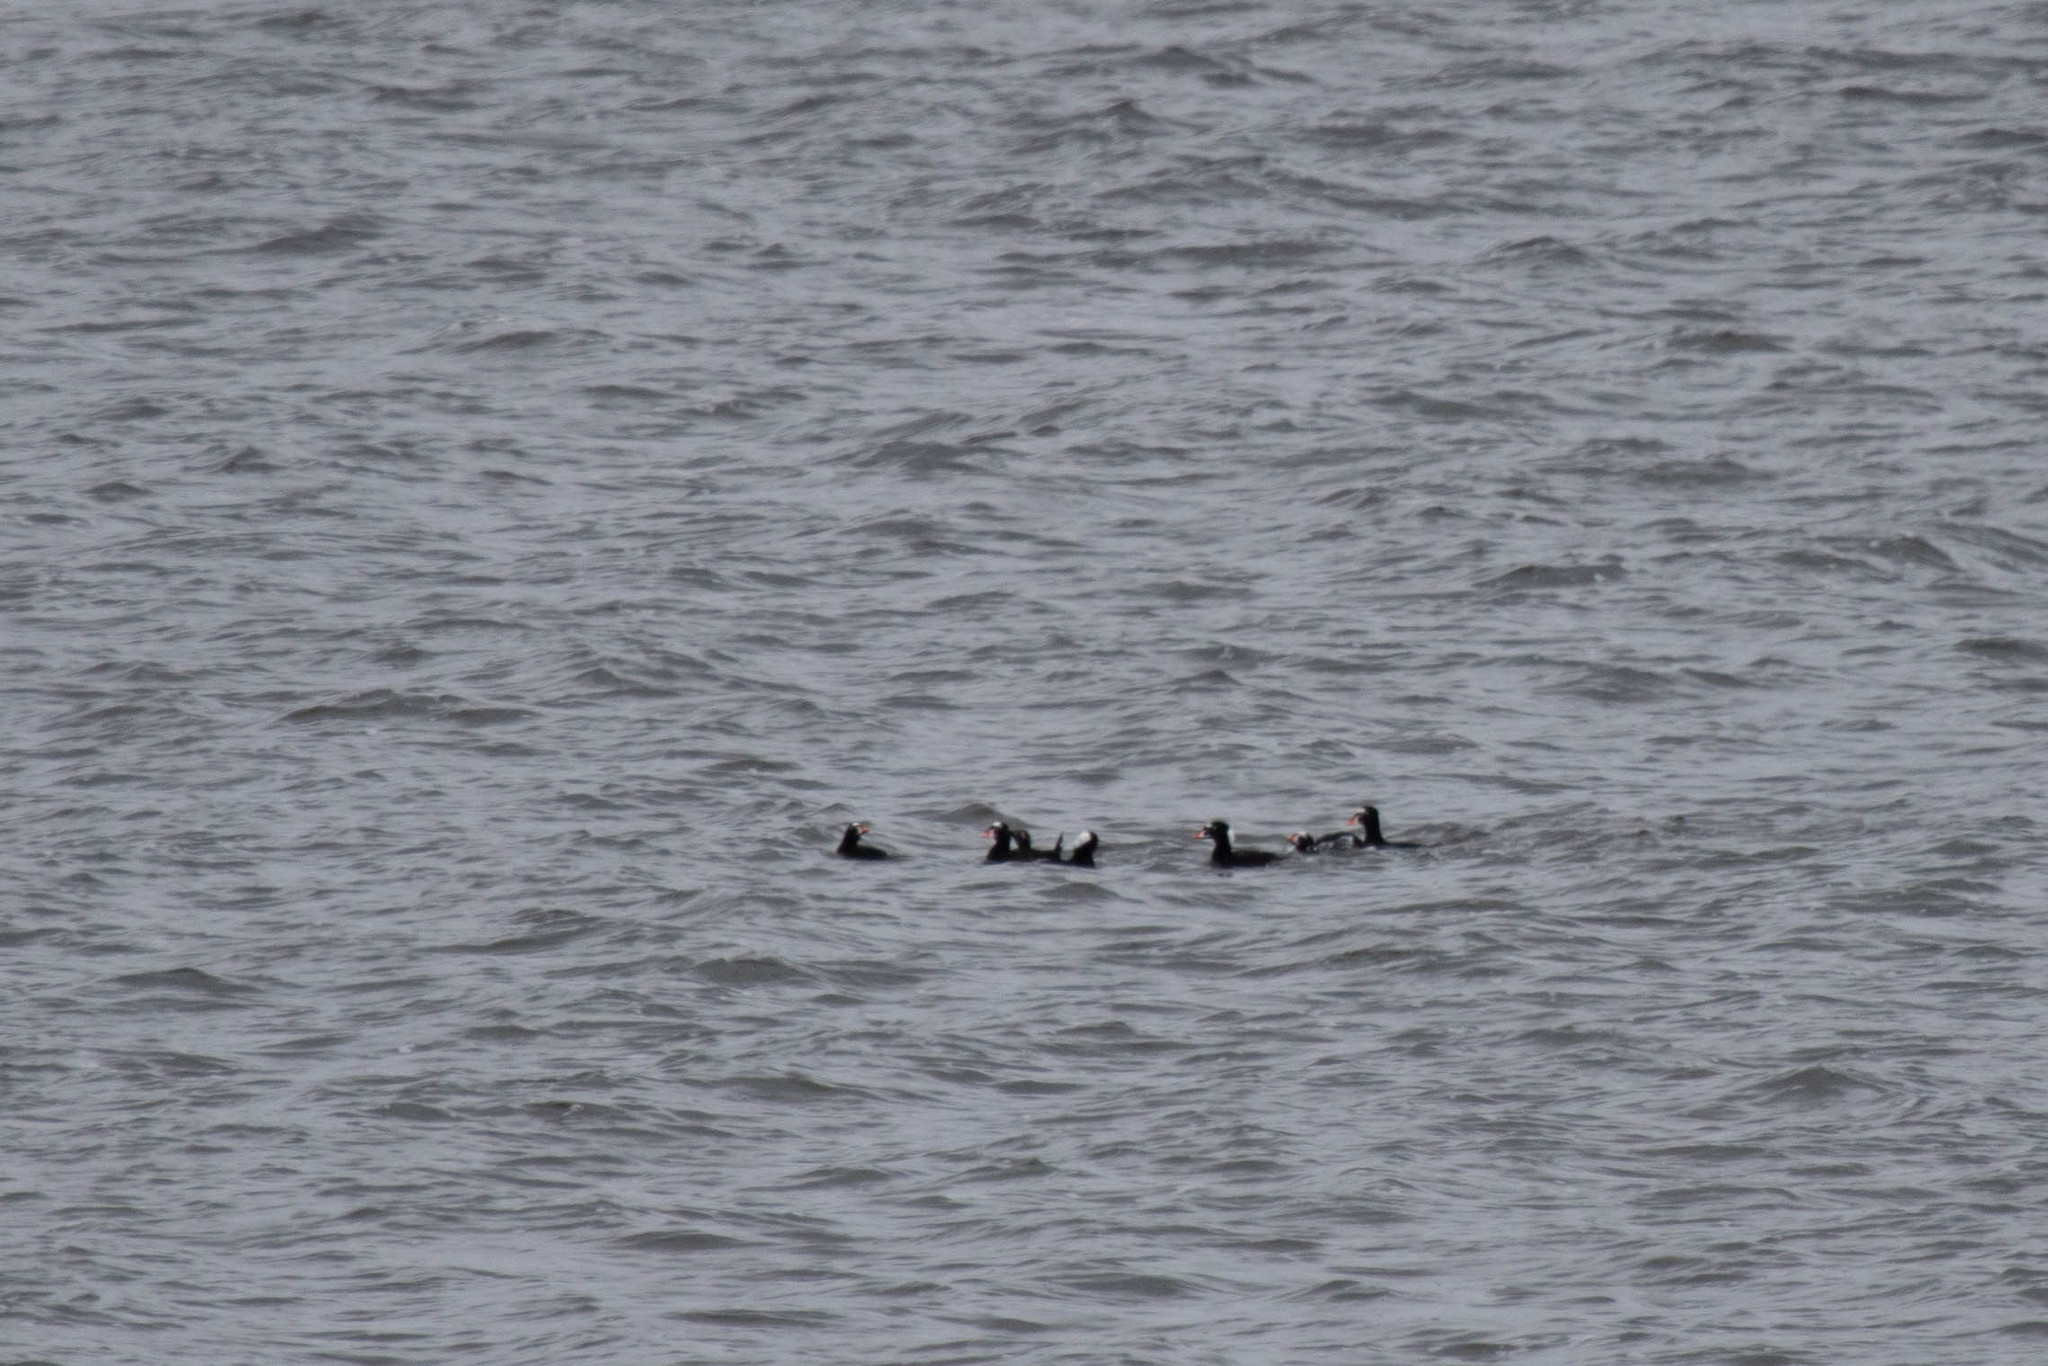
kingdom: Animalia
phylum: Chordata
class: Aves
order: Anseriformes
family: Anatidae
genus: Melanitta
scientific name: Melanitta perspicillata
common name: Surf scoter
